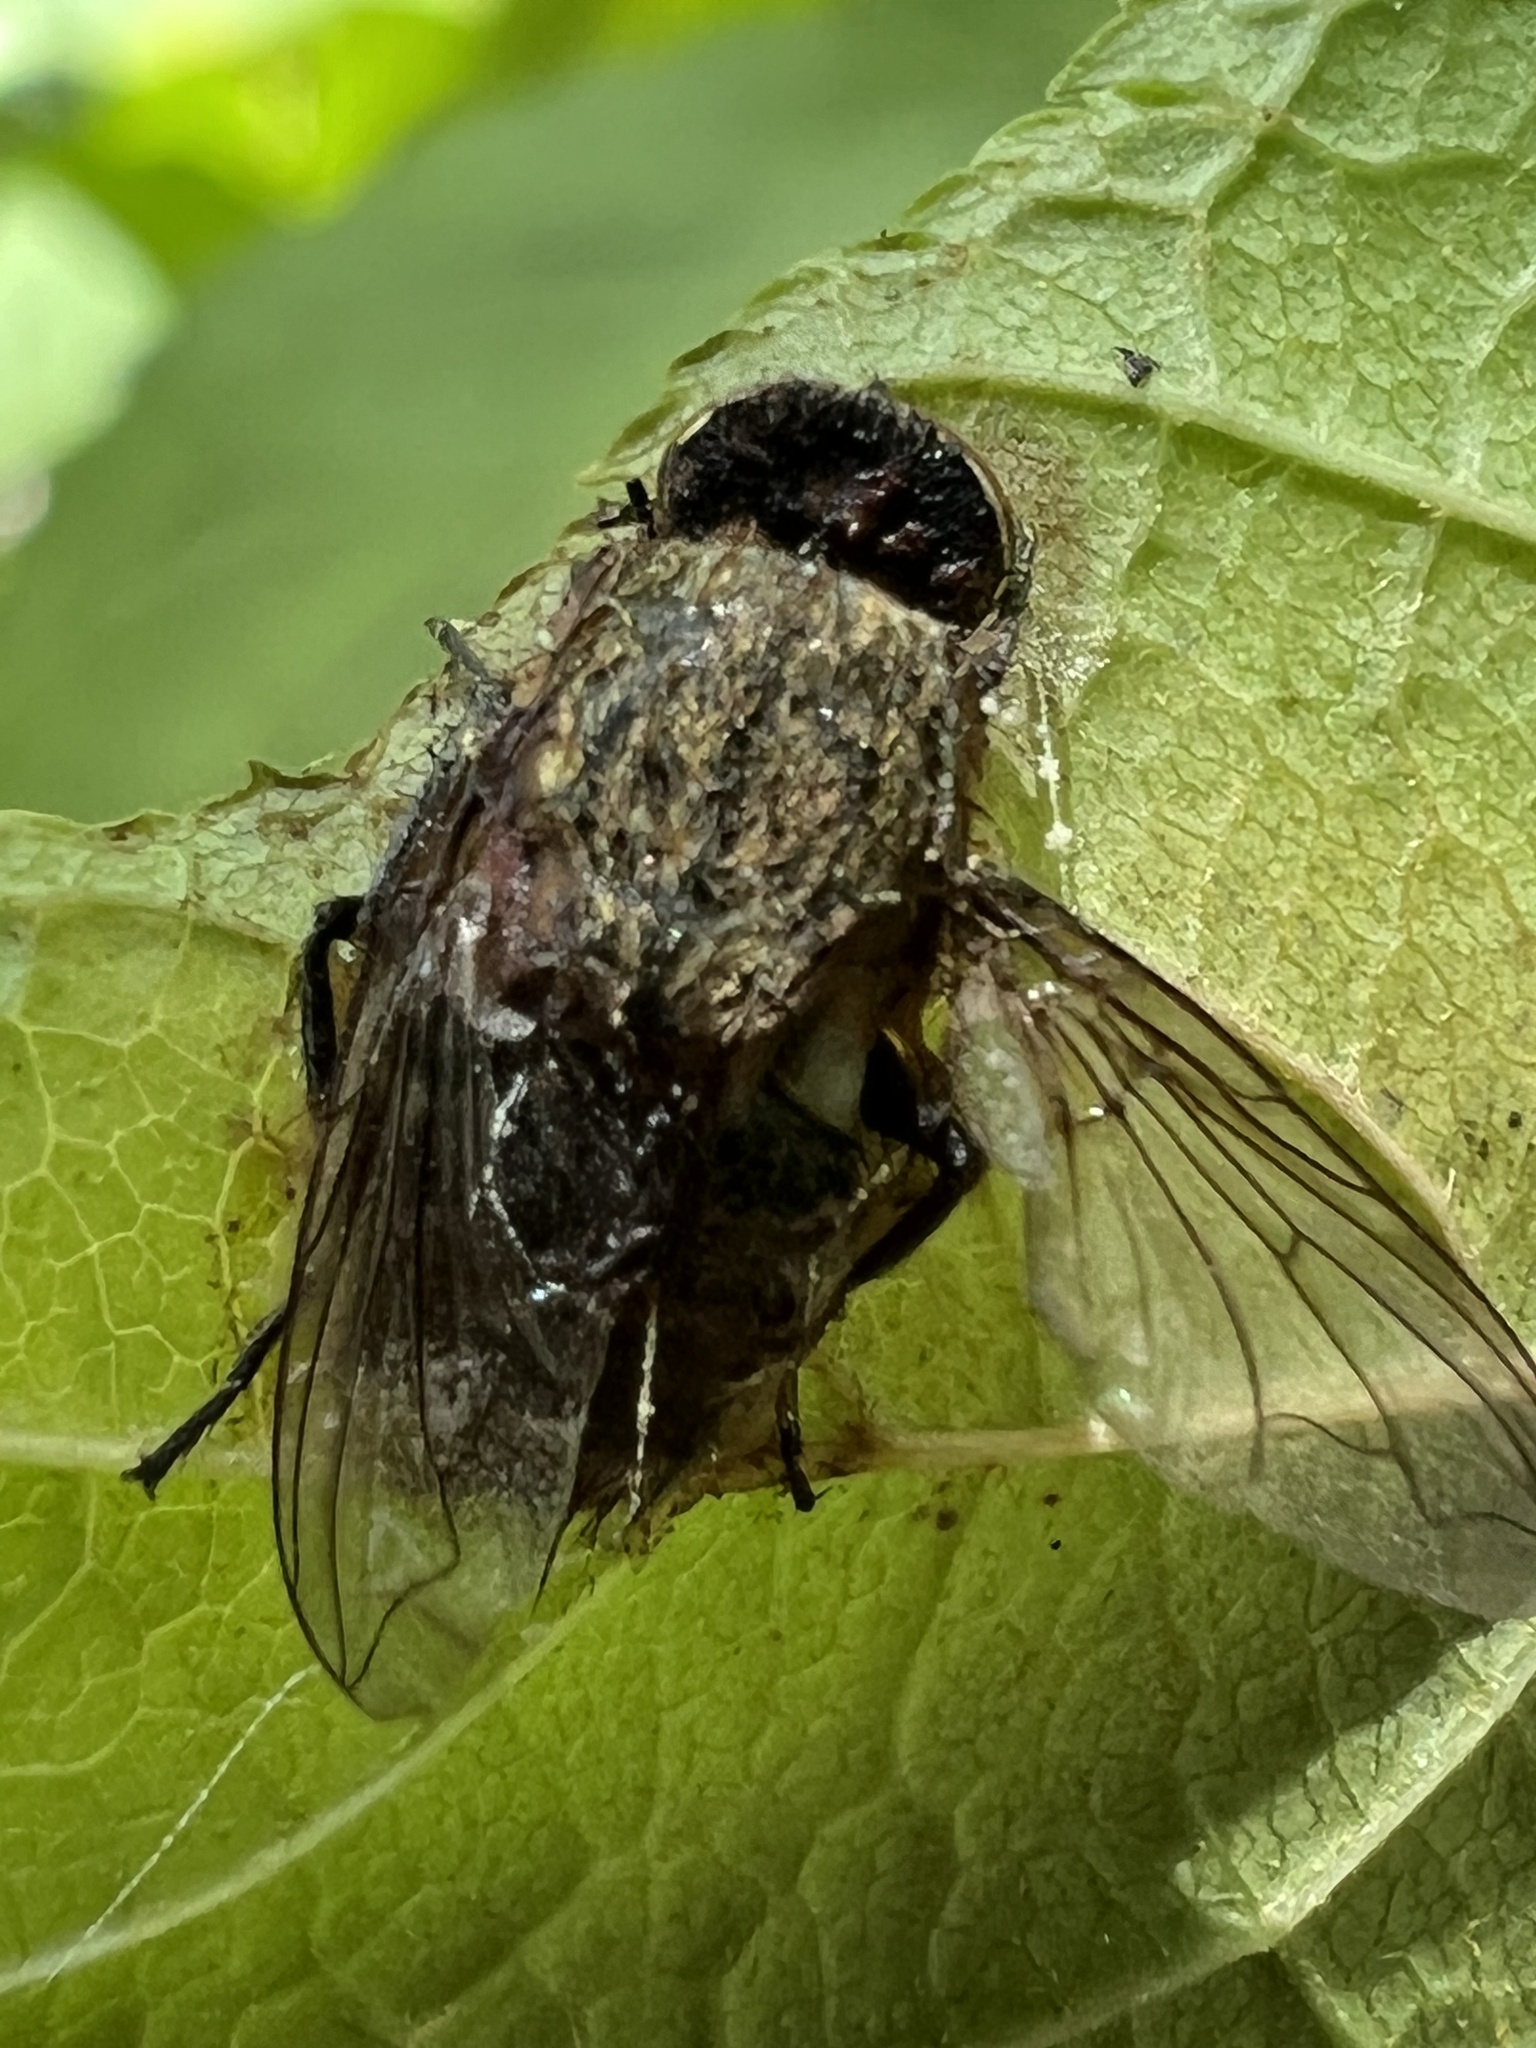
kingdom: Animalia
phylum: Arthropoda
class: Insecta
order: Diptera
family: Polleniidae
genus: Pollenia
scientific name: Pollenia
